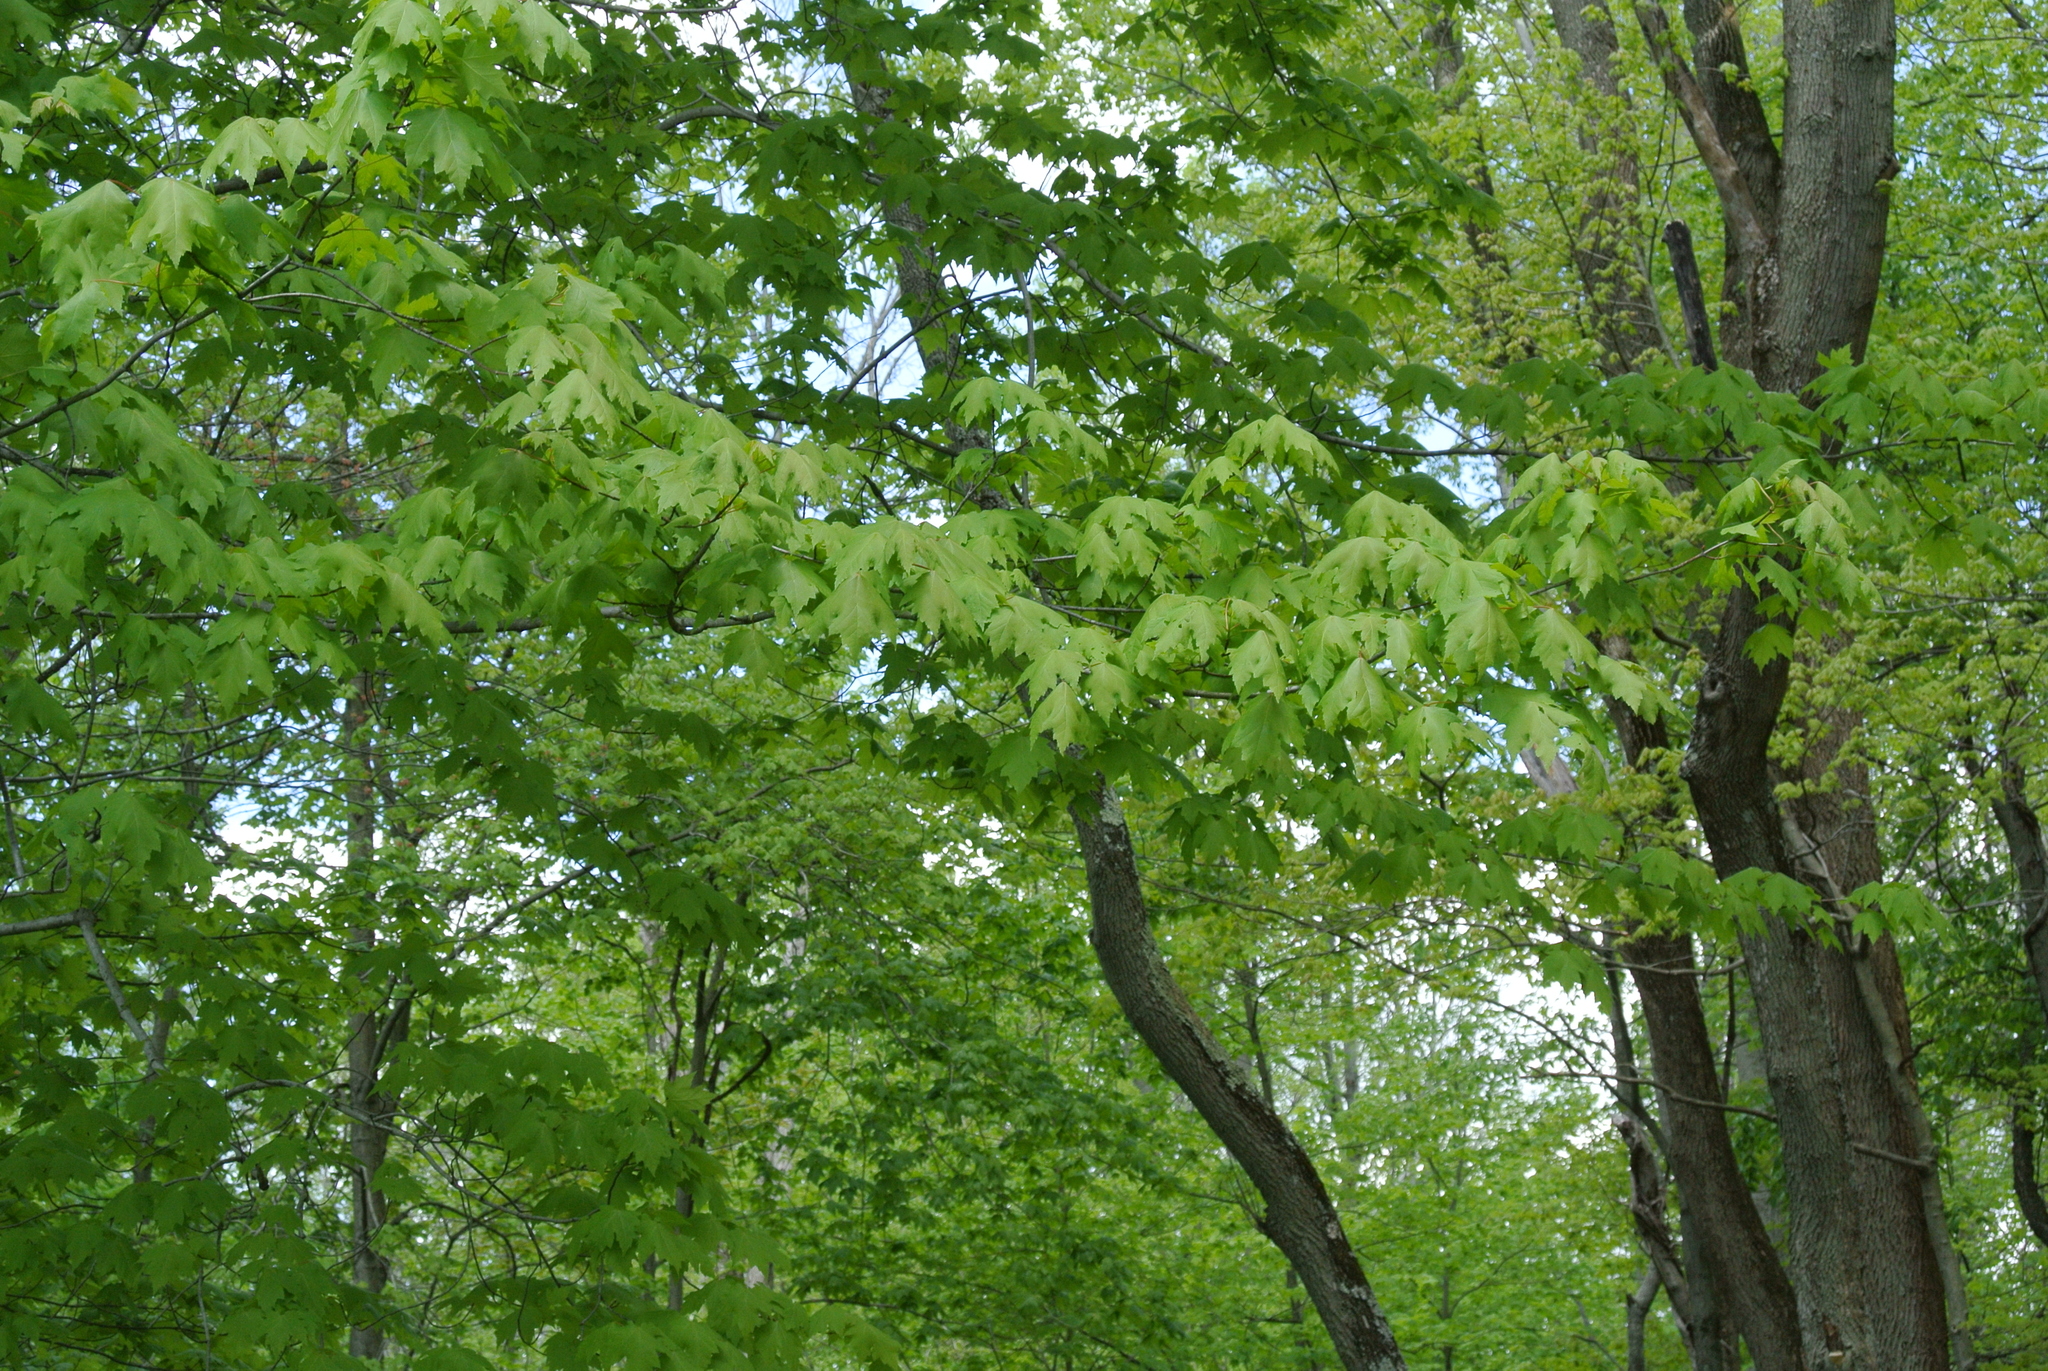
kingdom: Plantae
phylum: Tracheophyta
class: Magnoliopsida
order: Sapindales
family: Sapindaceae
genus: Acer
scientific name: Acer saccharinum
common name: Silver maple
